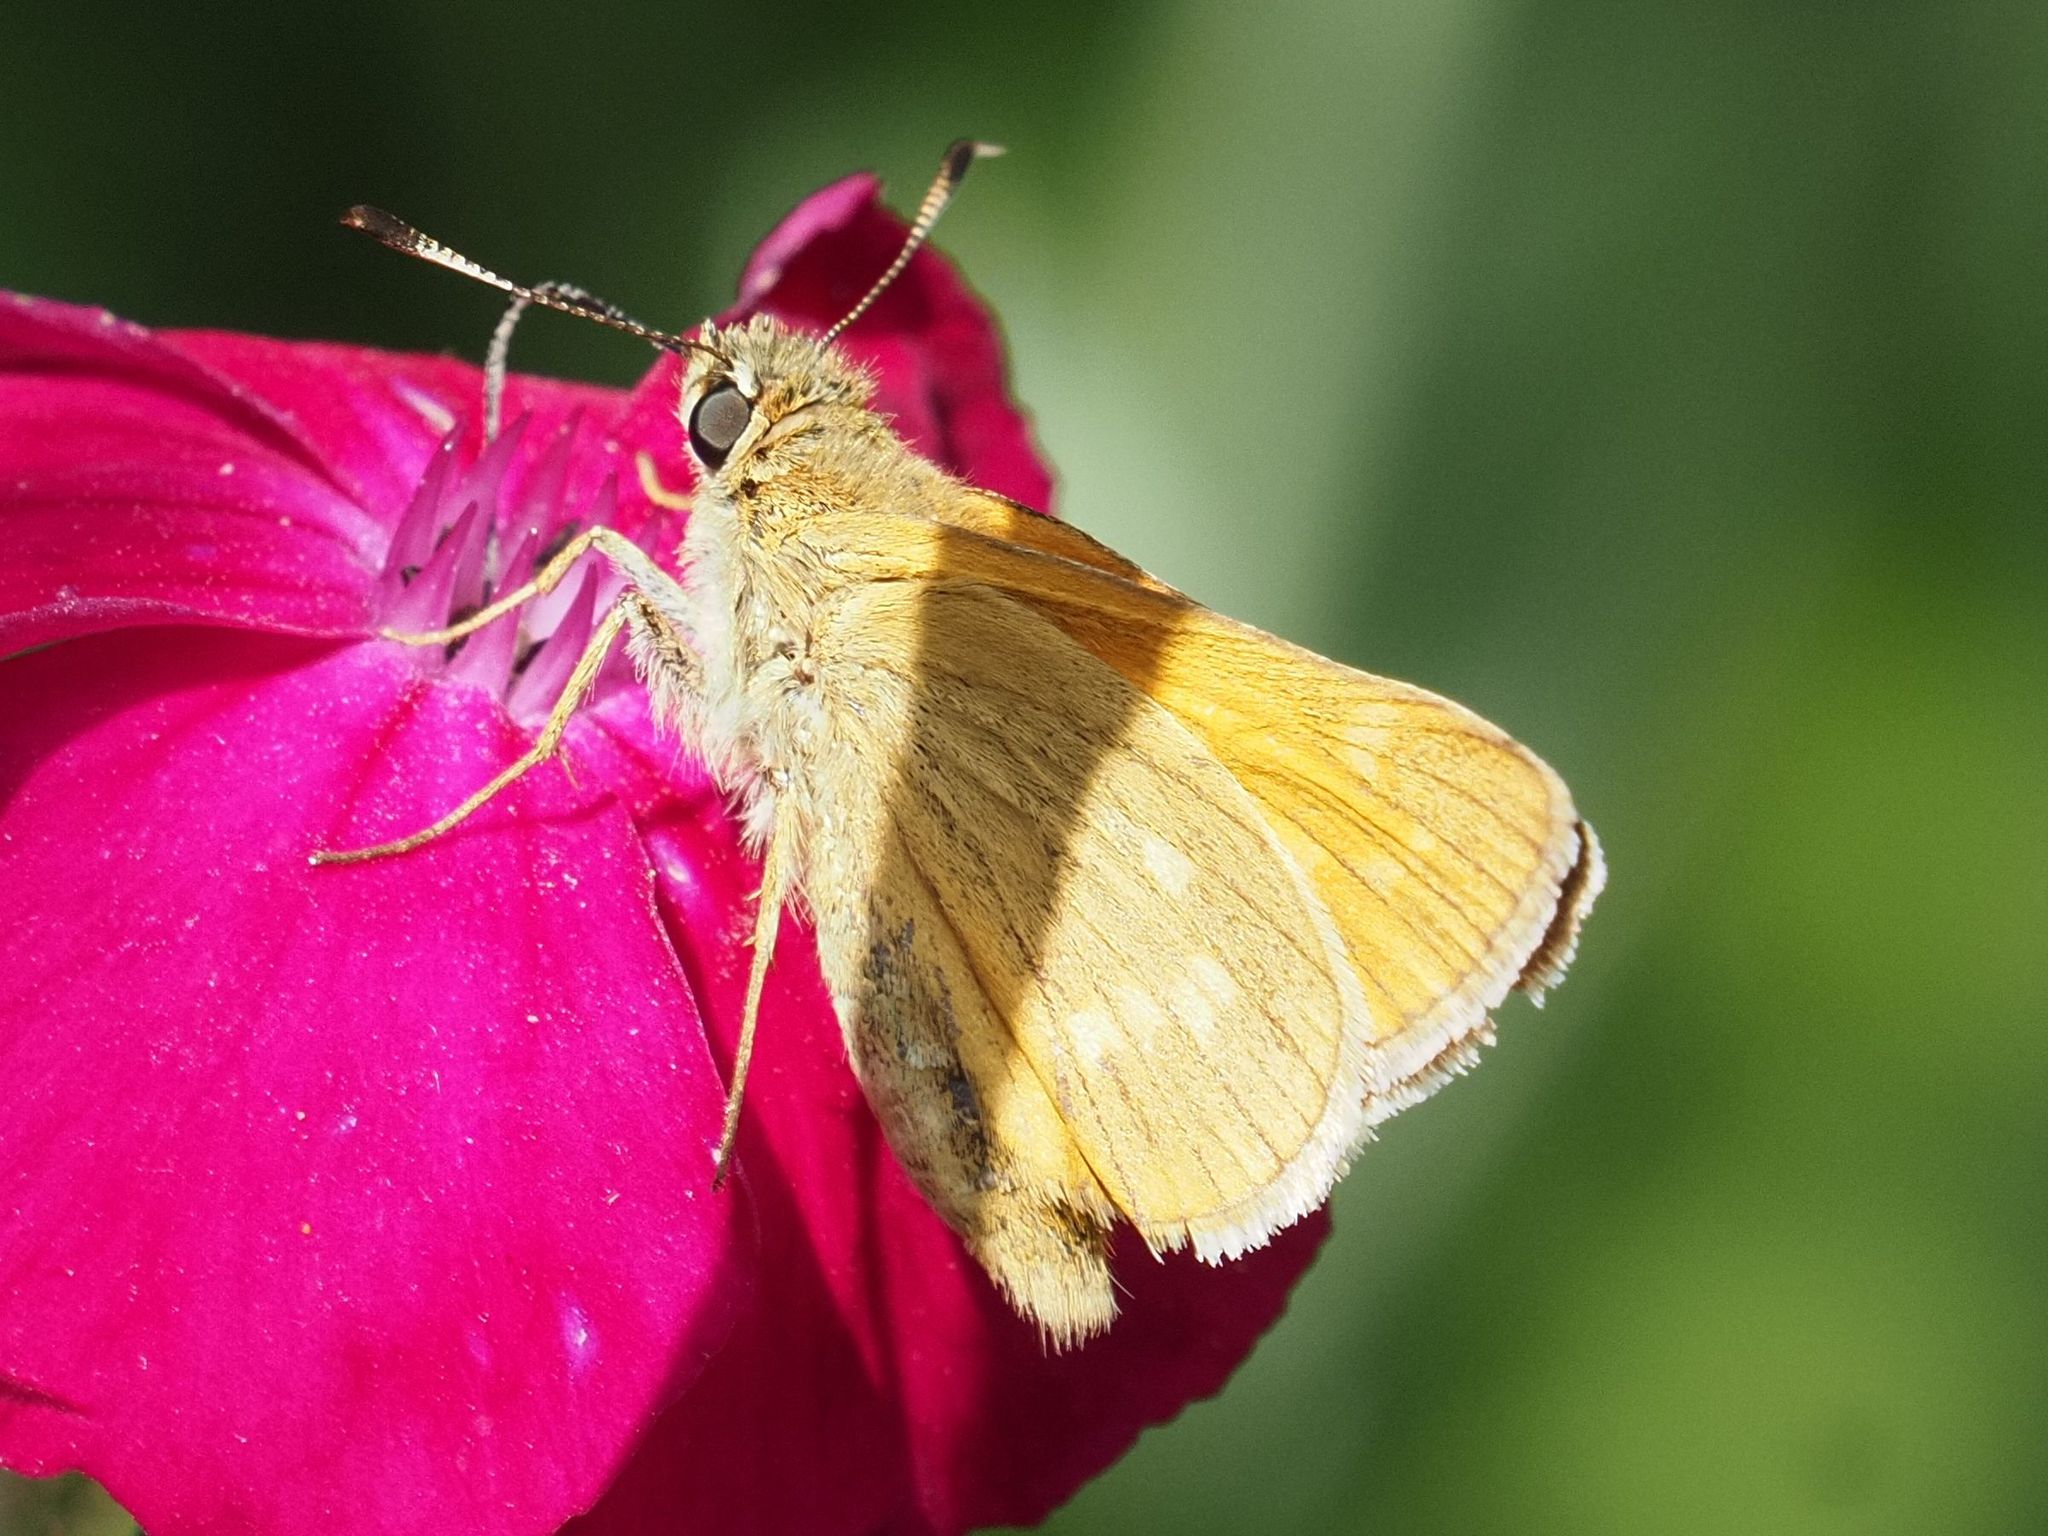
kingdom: Animalia
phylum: Arthropoda
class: Insecta
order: Lepidoptera
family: Hesperiidae
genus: Ochlodes
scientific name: Ochlodes venata
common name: Large skipper
